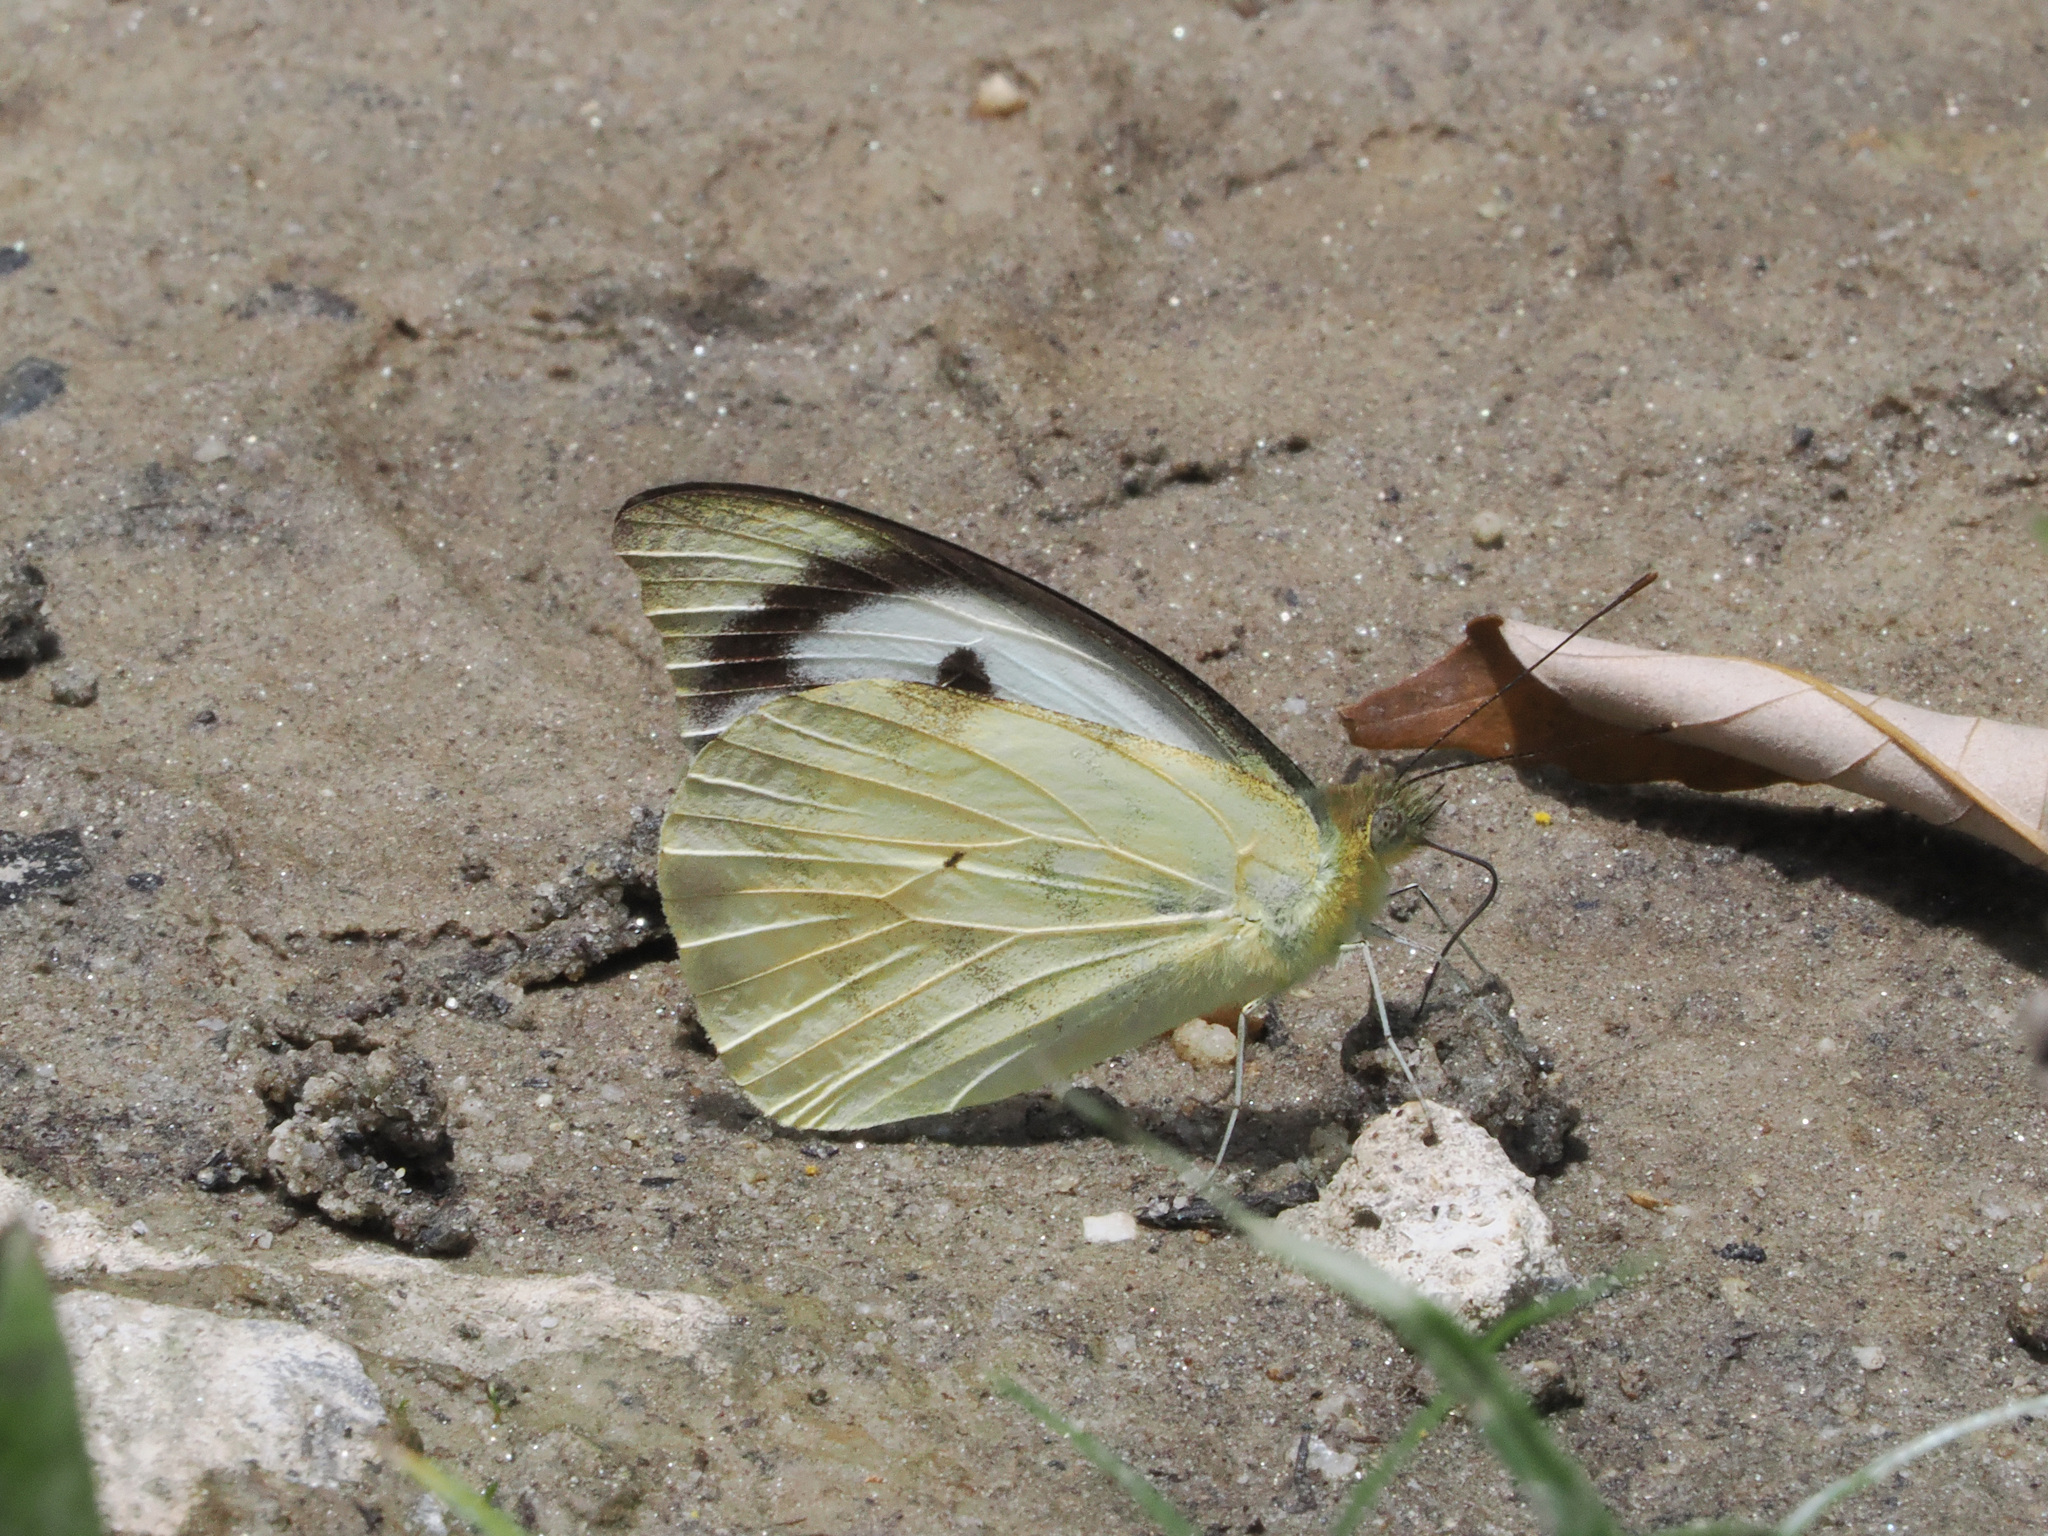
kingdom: Animalia
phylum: Arthropoda
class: Insecta
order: Lepidoptera
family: Pieridae
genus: Appias
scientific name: Appias lalage
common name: Spot puffin
